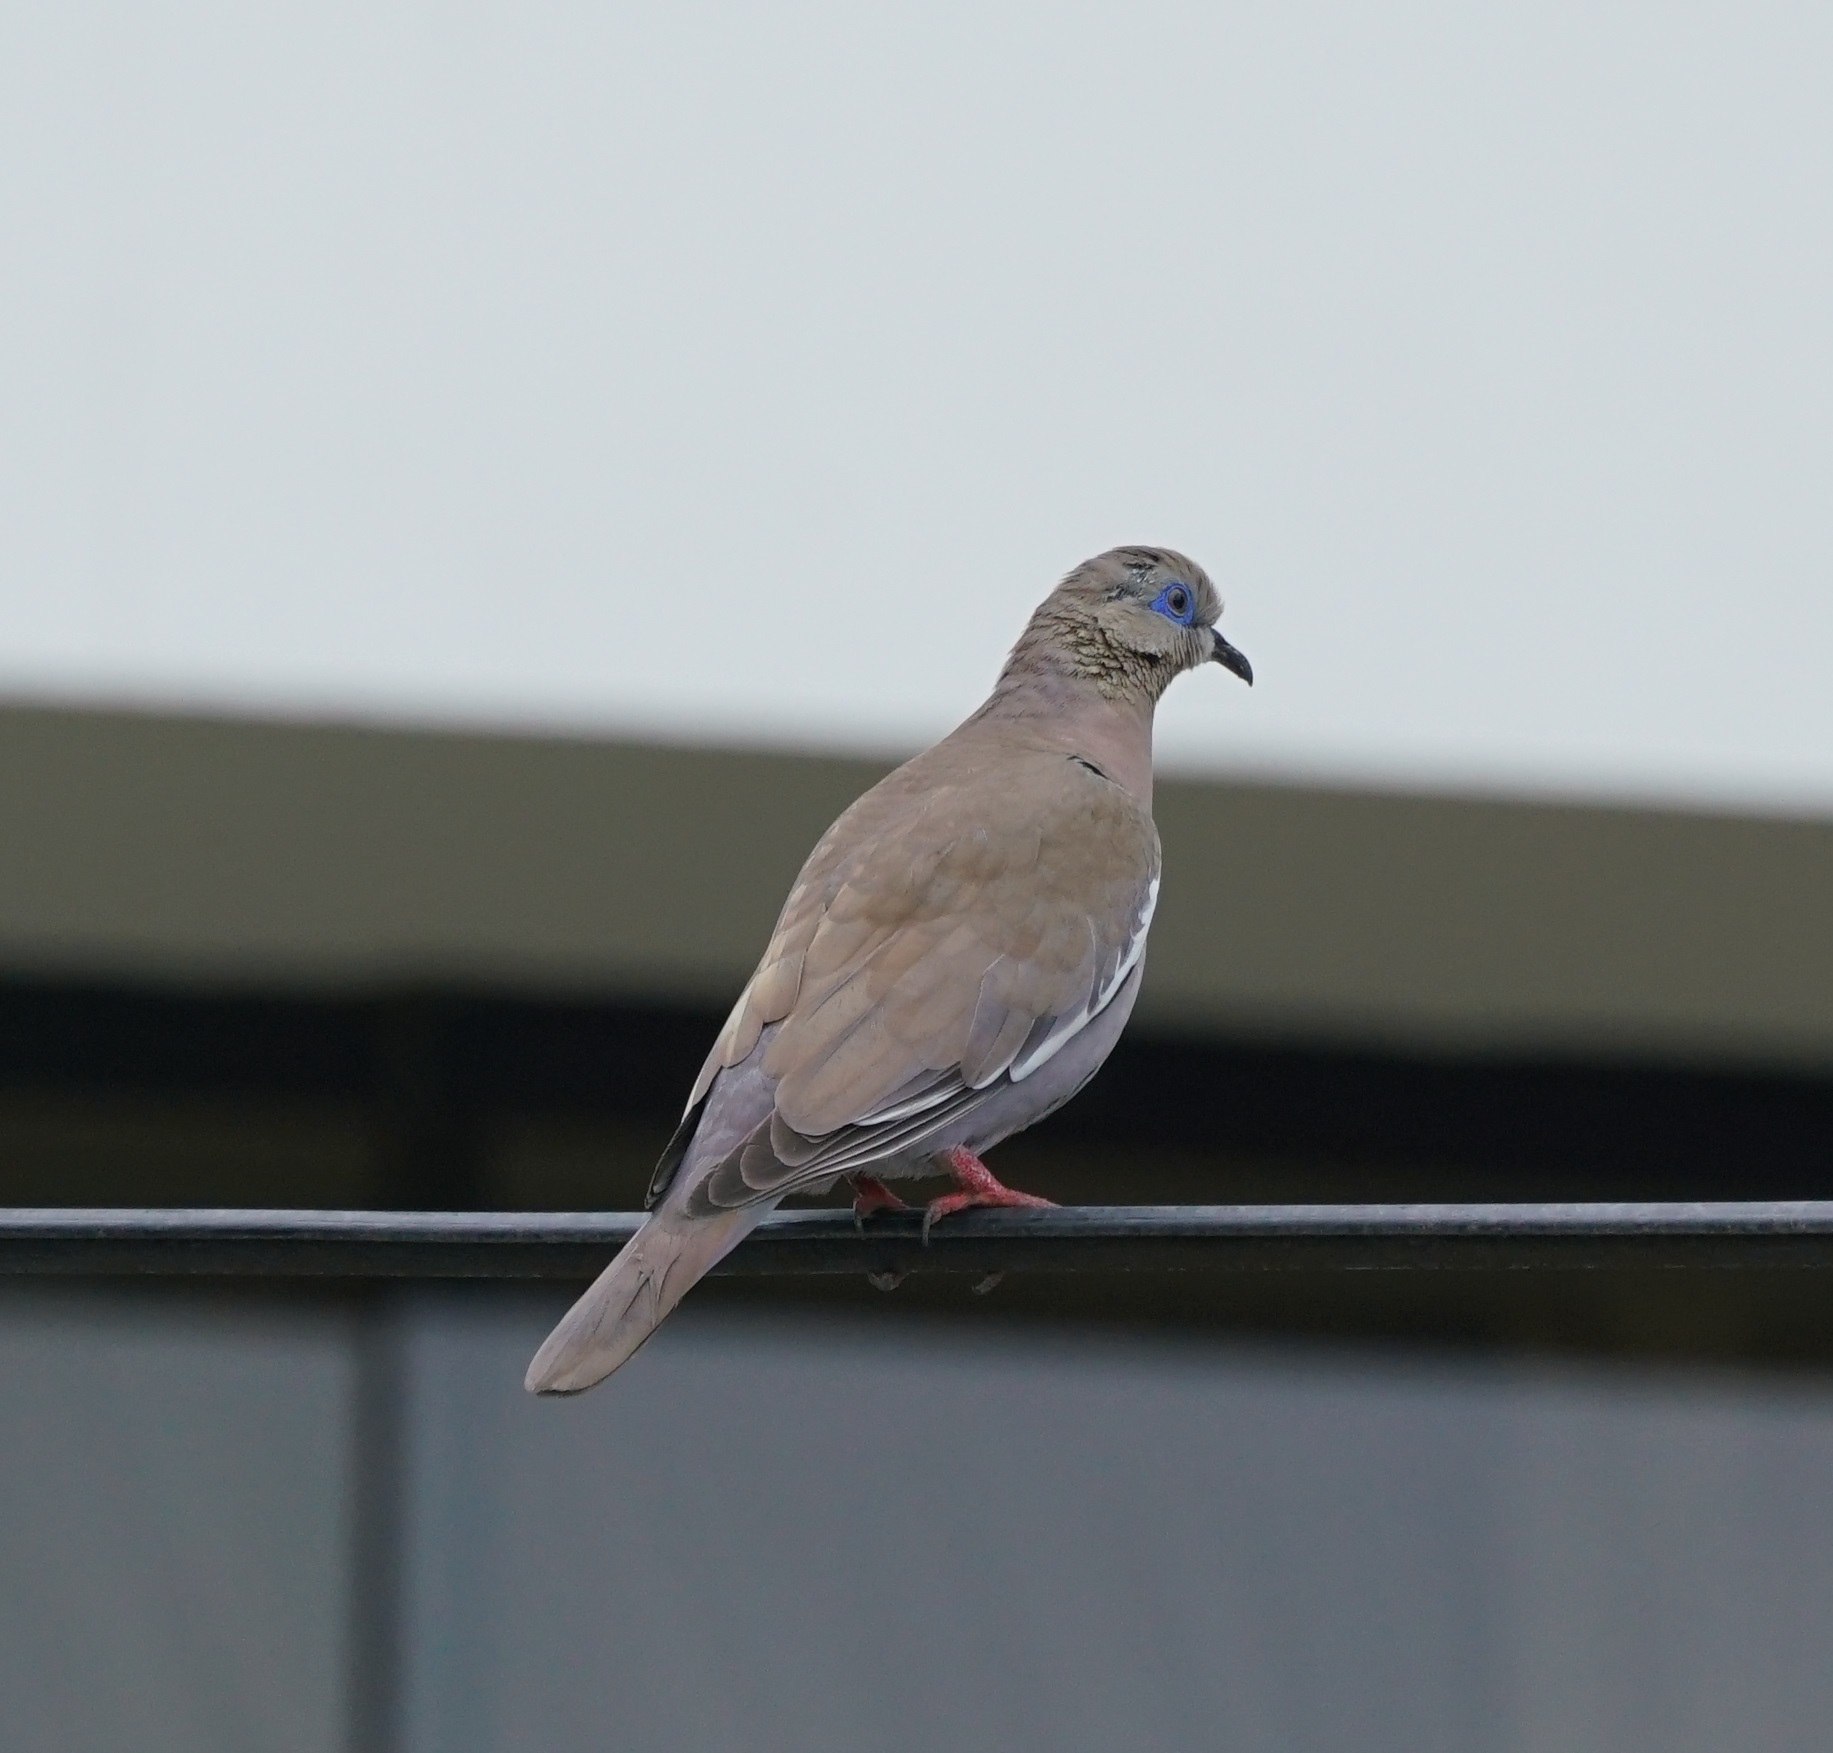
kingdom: Animalia
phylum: Chordata
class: Aves
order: Columbiformes
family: Columbidae
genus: Zenaida
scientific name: Zenaida meloda
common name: West peruvian dove
